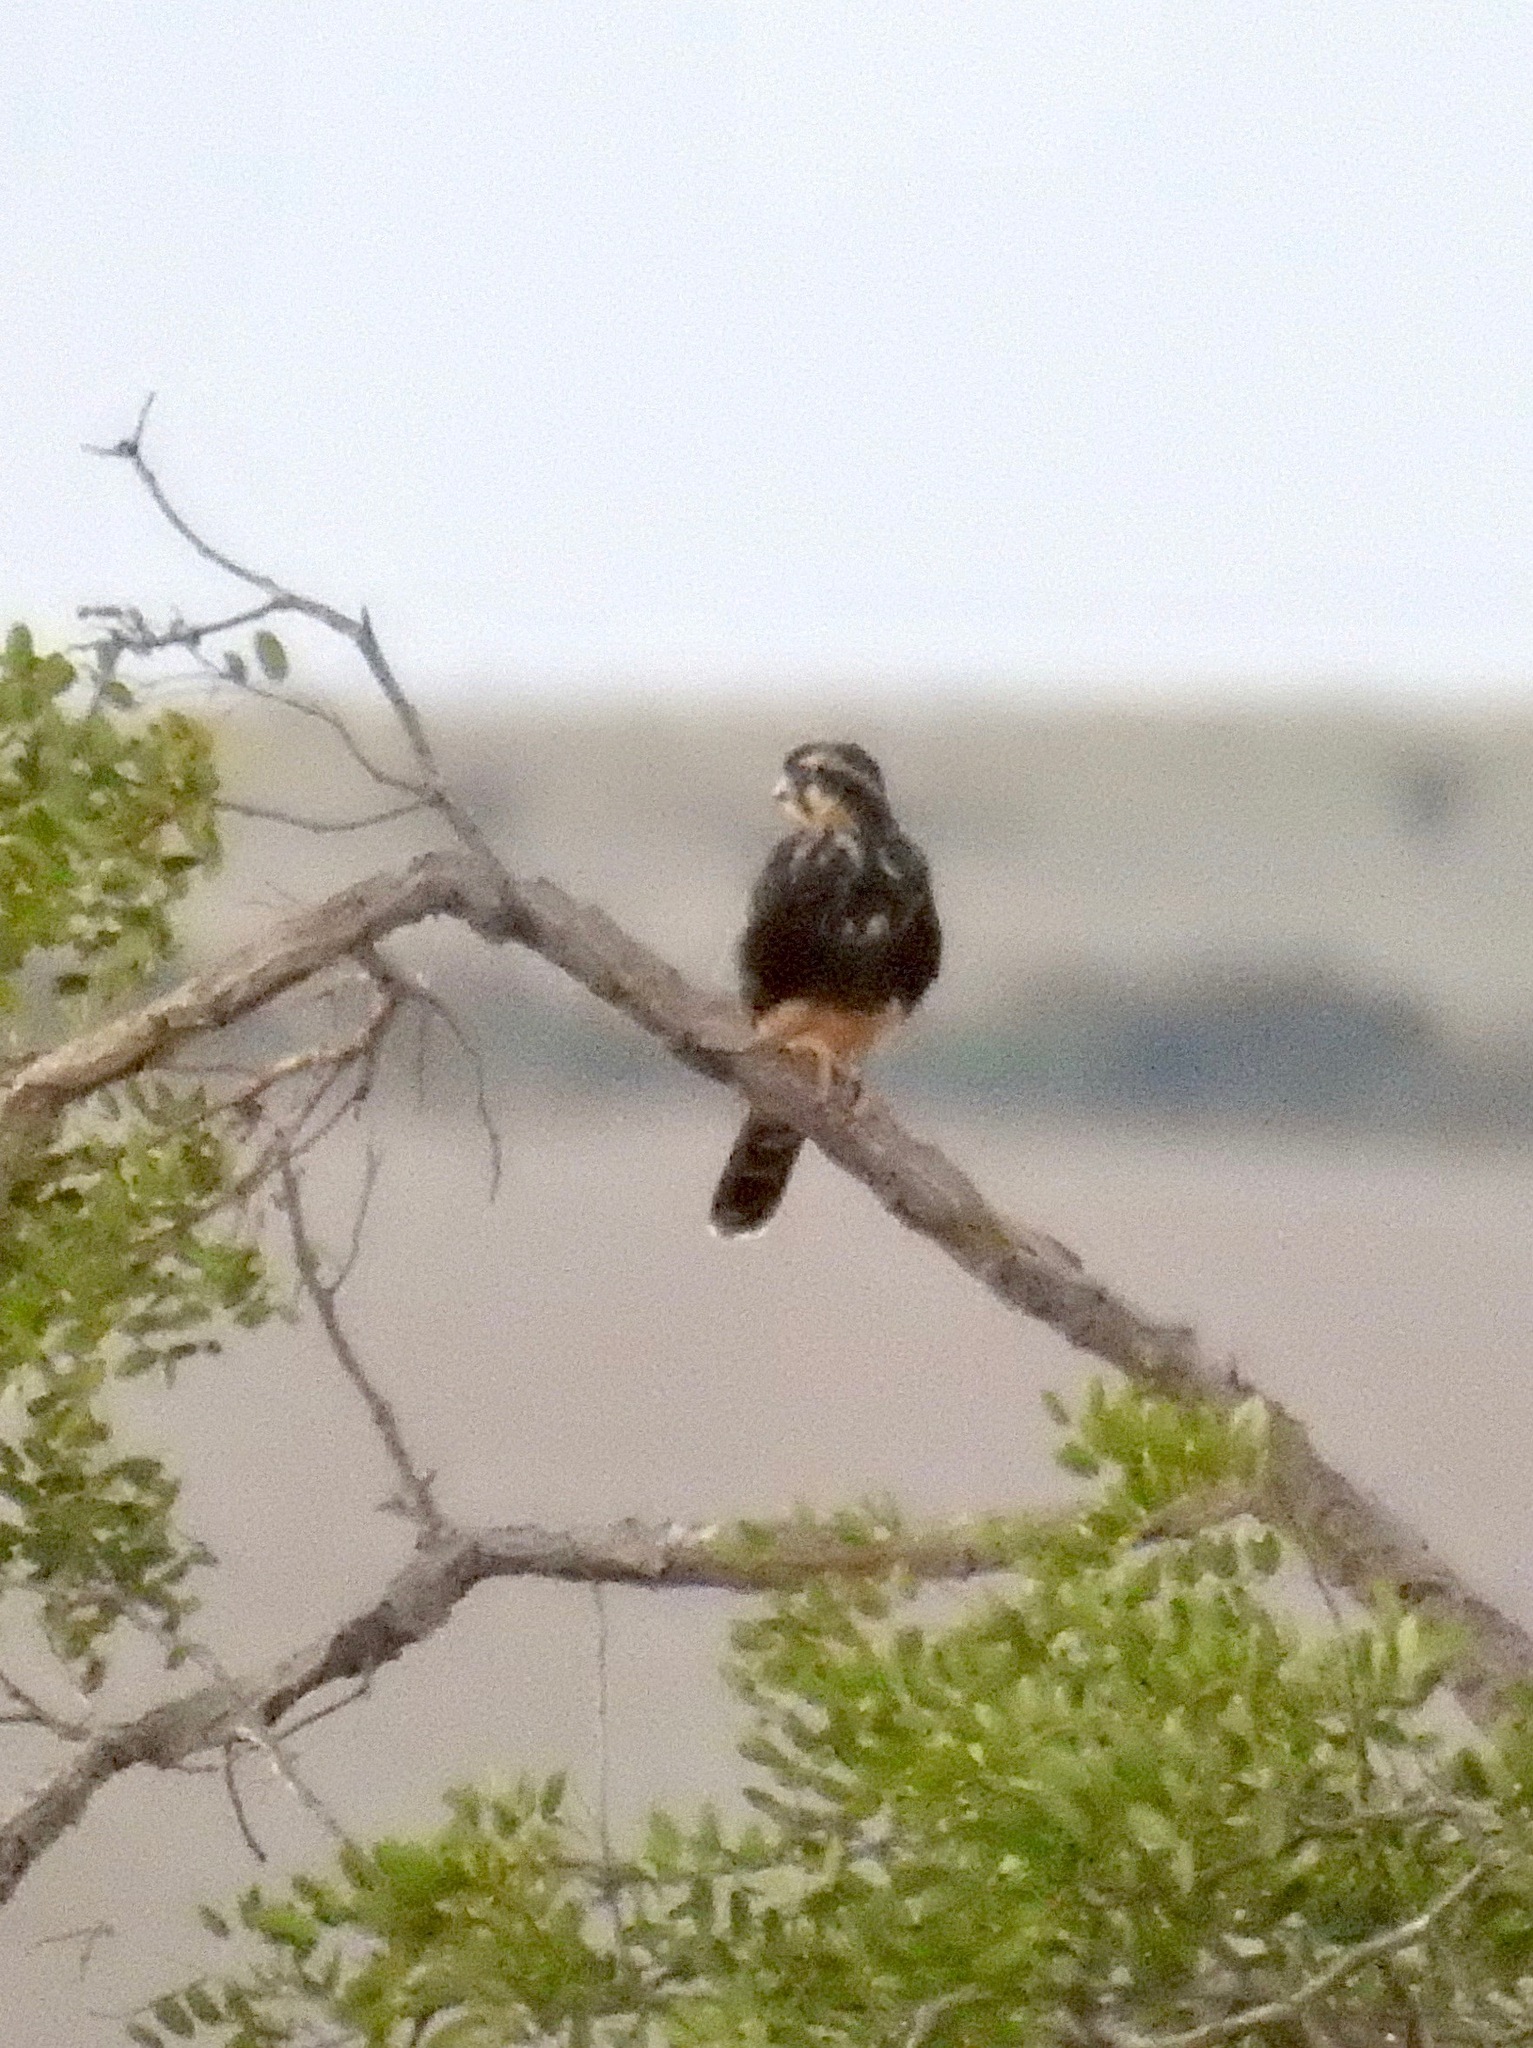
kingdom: Animalia
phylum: Chordata
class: Aves
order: Falconiformes
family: Falconidae
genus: Falco
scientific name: Falco femoralis
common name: Aplomado falcon
